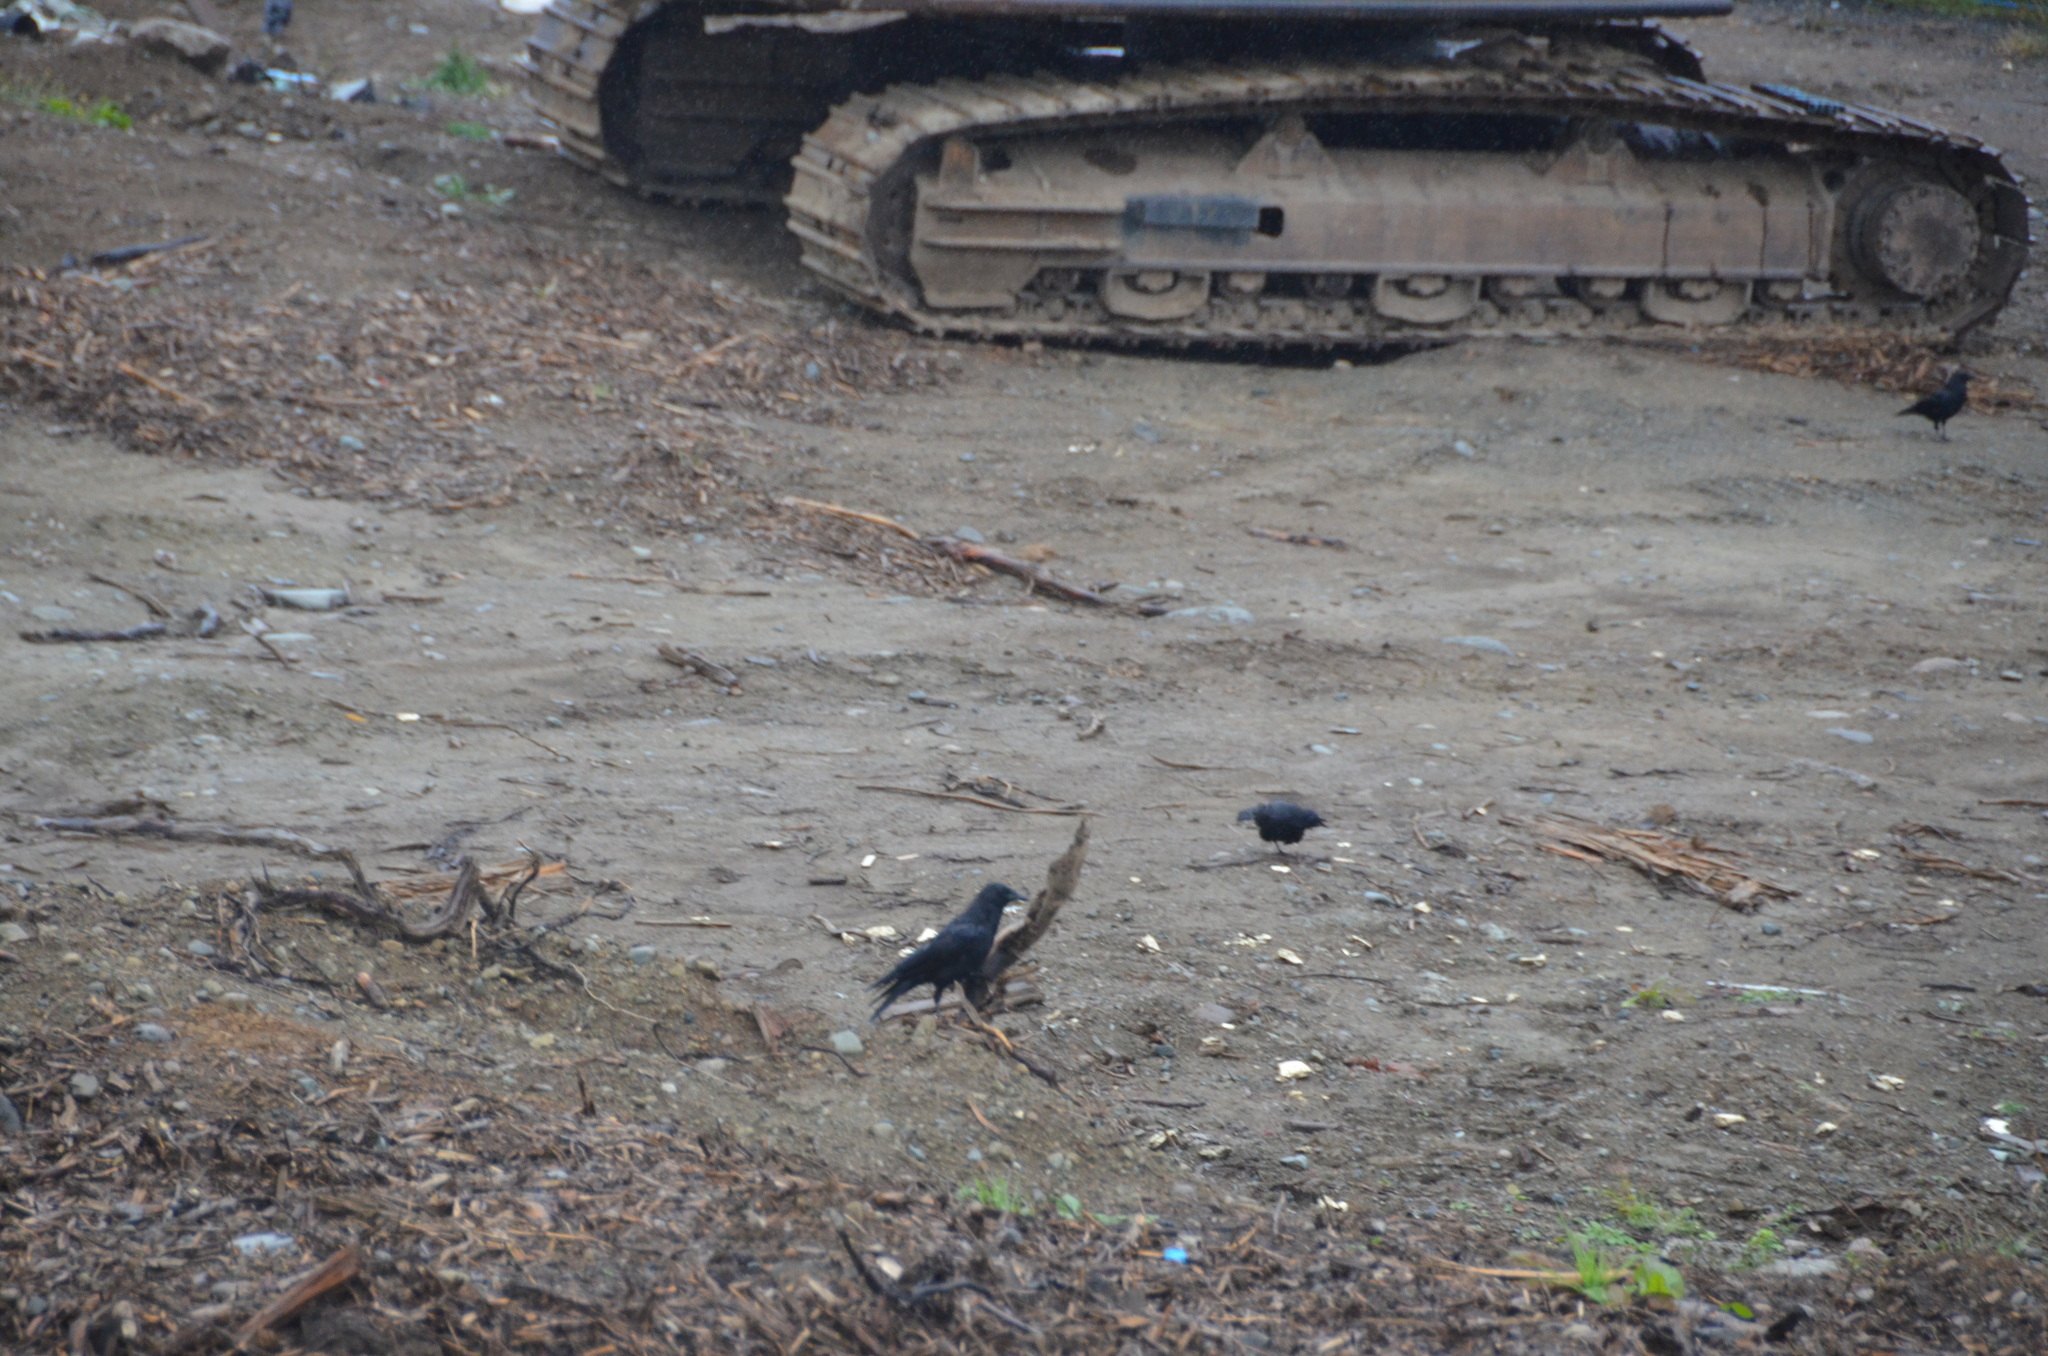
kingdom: Animalia
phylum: Chordata
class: Aves
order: Passeriformes
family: Corvidae
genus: Corvus
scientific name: Corvus brachyrhynchos
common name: American crow
